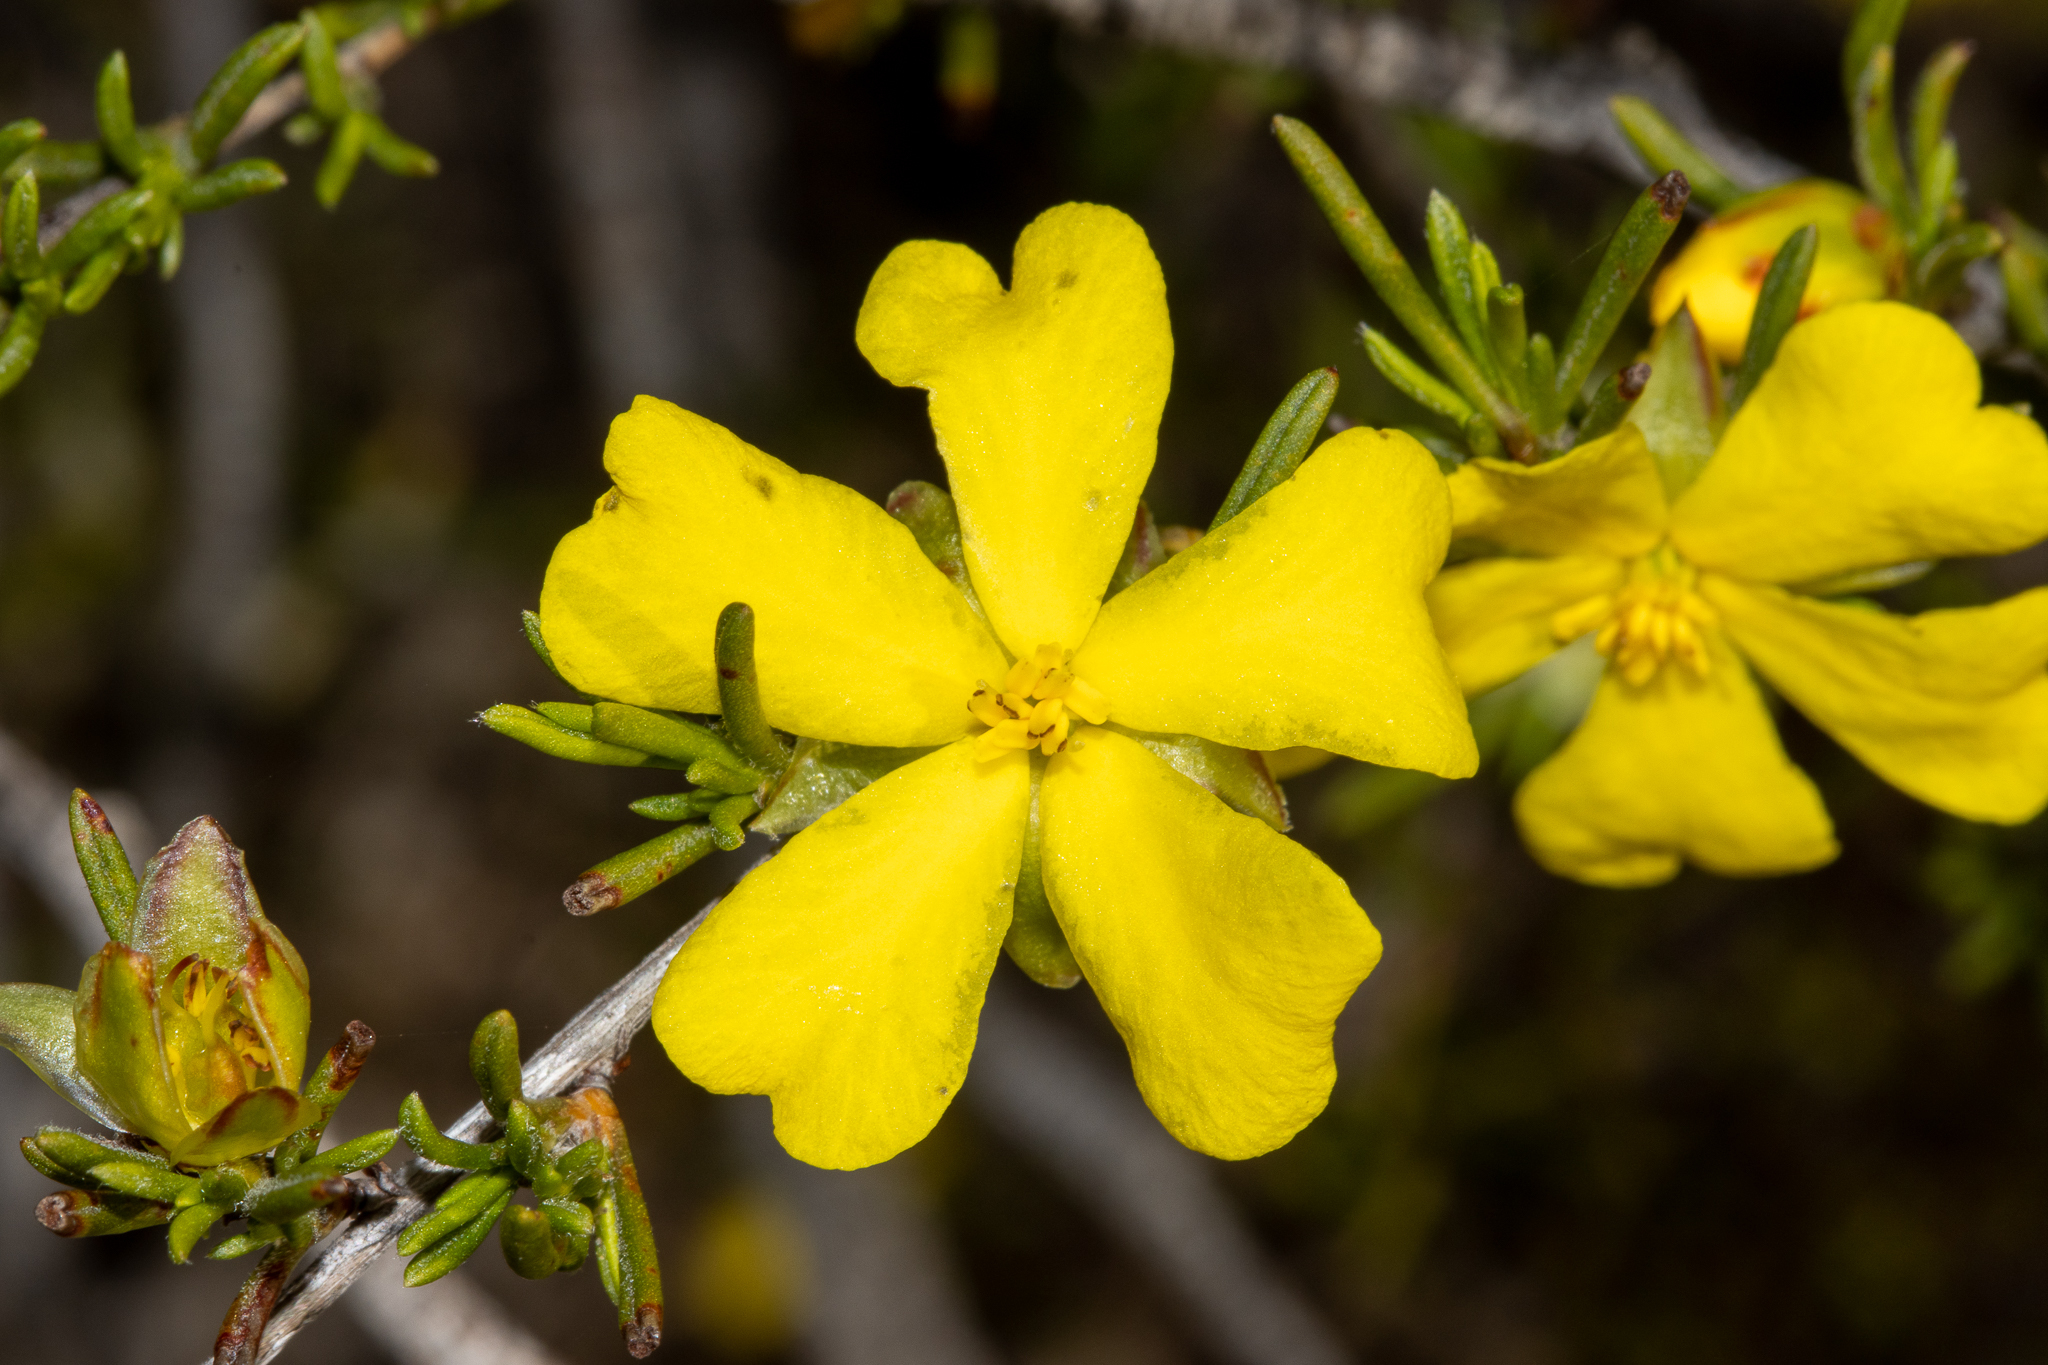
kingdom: Plantae
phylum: Tracheophyta
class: Magnoliopsida
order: Dilleniales
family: Dilleniaceae
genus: Hibbertia
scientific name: Hibbertia virgata
